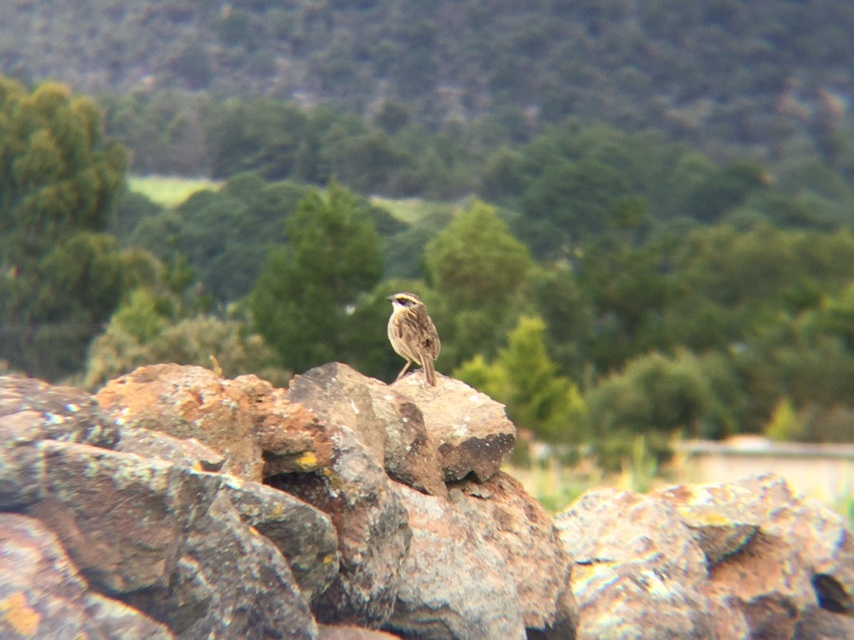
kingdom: Animalia
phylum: Chordata
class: Aves
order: Passeriformes
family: Passerellidae
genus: Oriturus
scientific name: Oriturus superciliosus
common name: Striped sparrow
